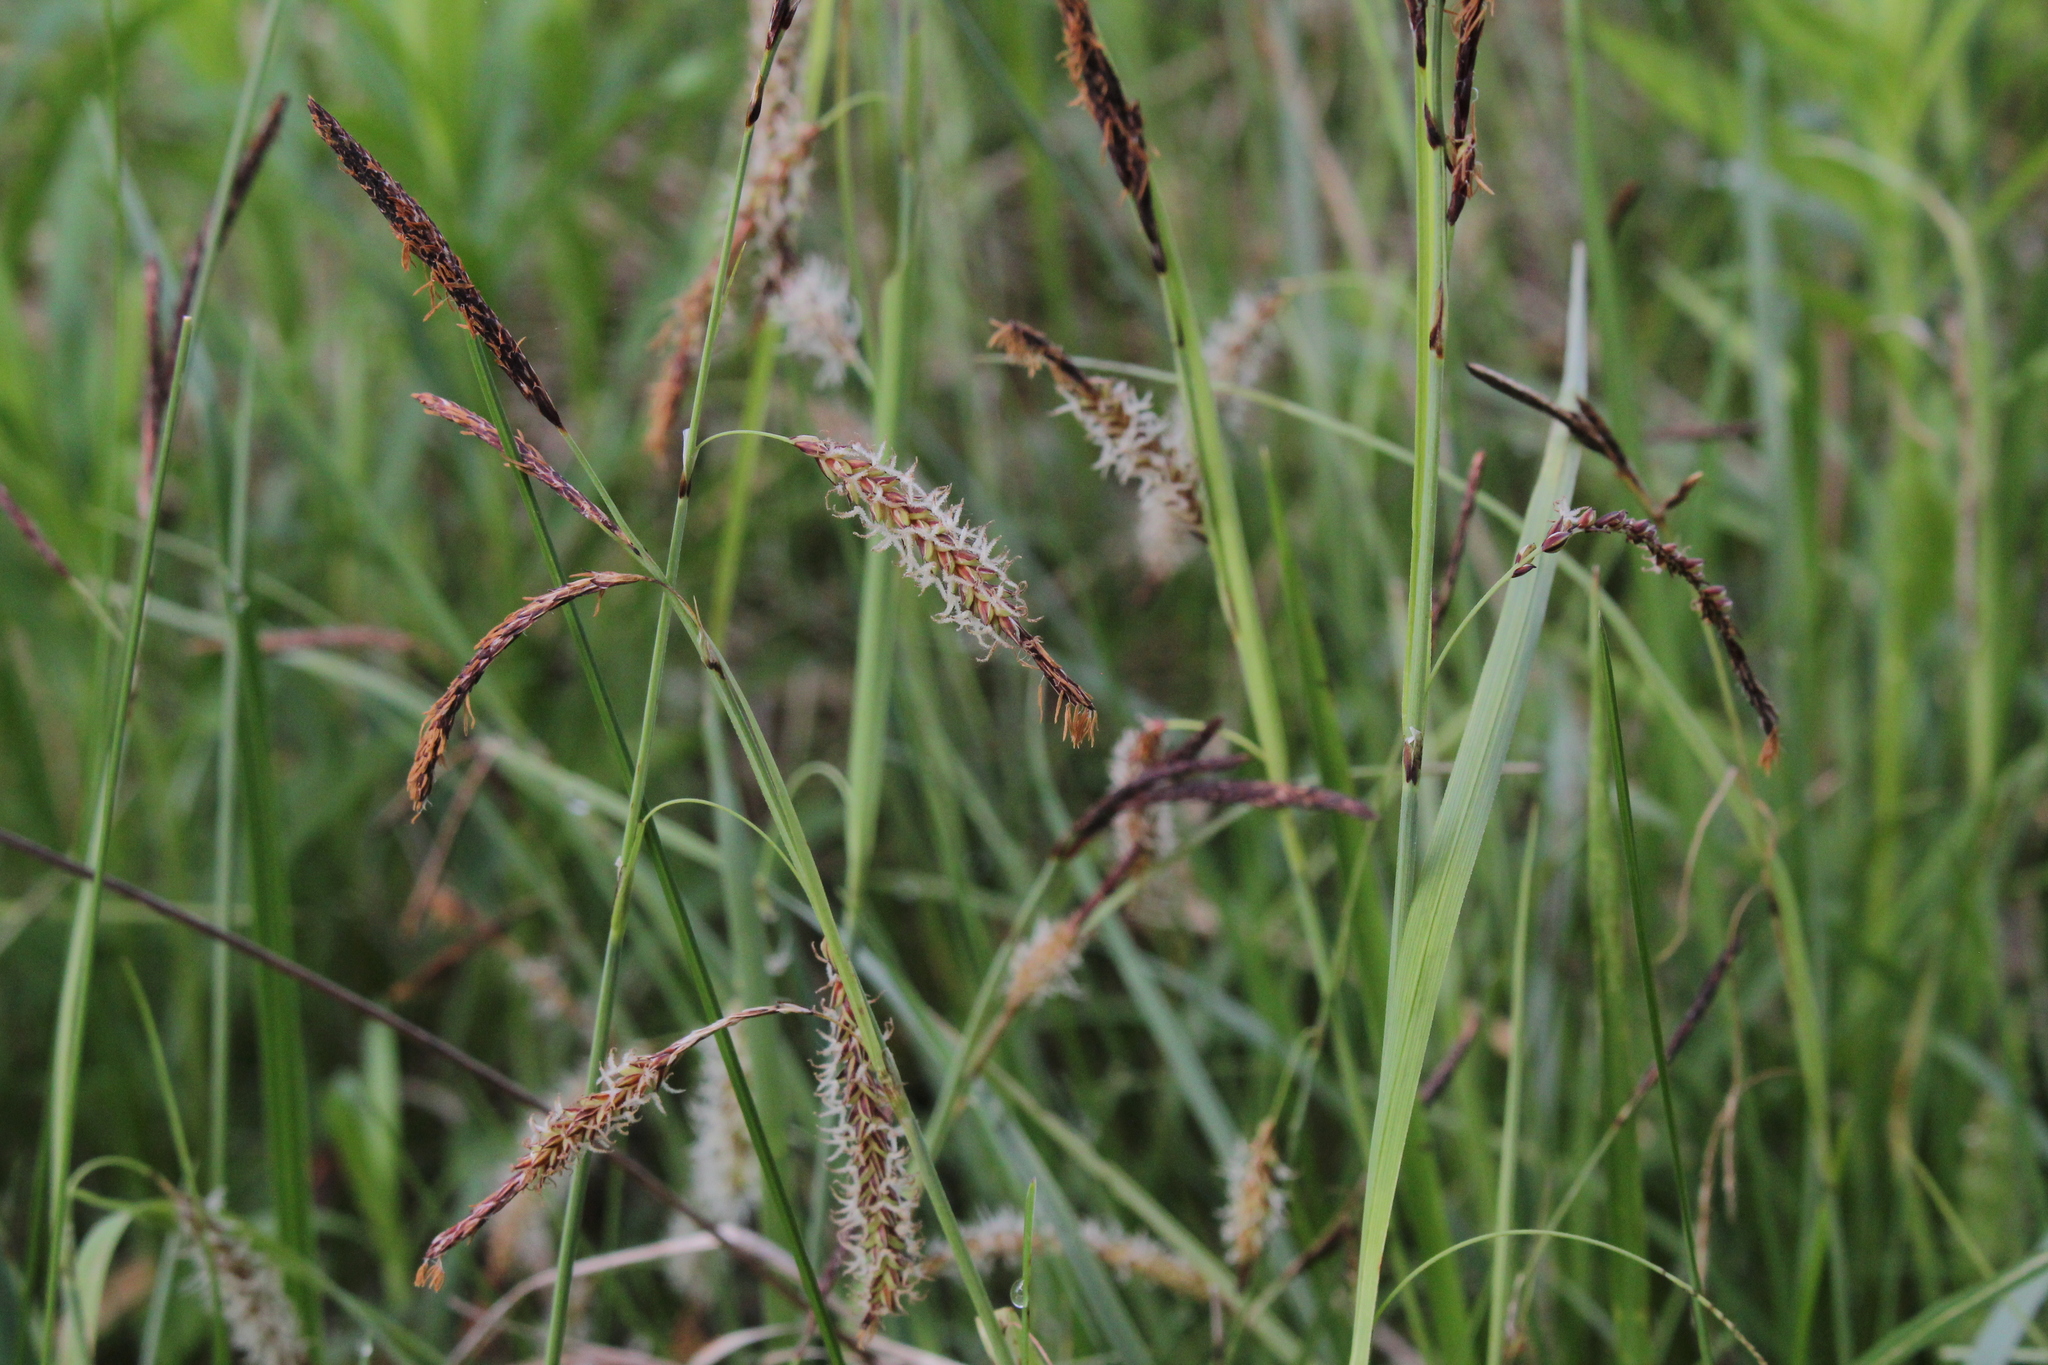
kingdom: Plantae
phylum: Tracheophyta
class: Liliopsida
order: Poales
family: Cyperaceae
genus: Carex
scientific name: Carex flacca
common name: Glaucous sedge
